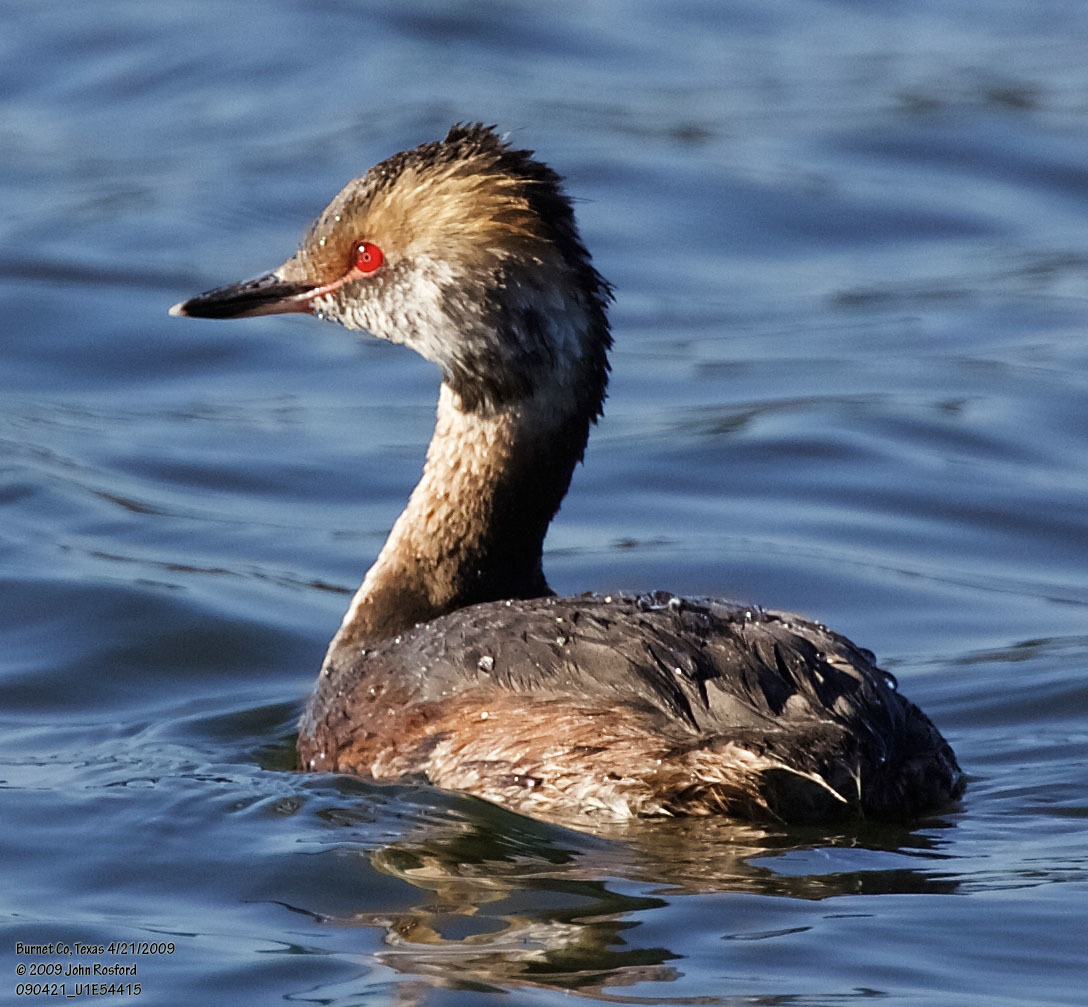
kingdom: Animalia
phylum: Chordata
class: Aves
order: Podicipediformes
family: Podicipedidae
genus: Podiceps
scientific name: Podiceps auritus
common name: Horned grebe
